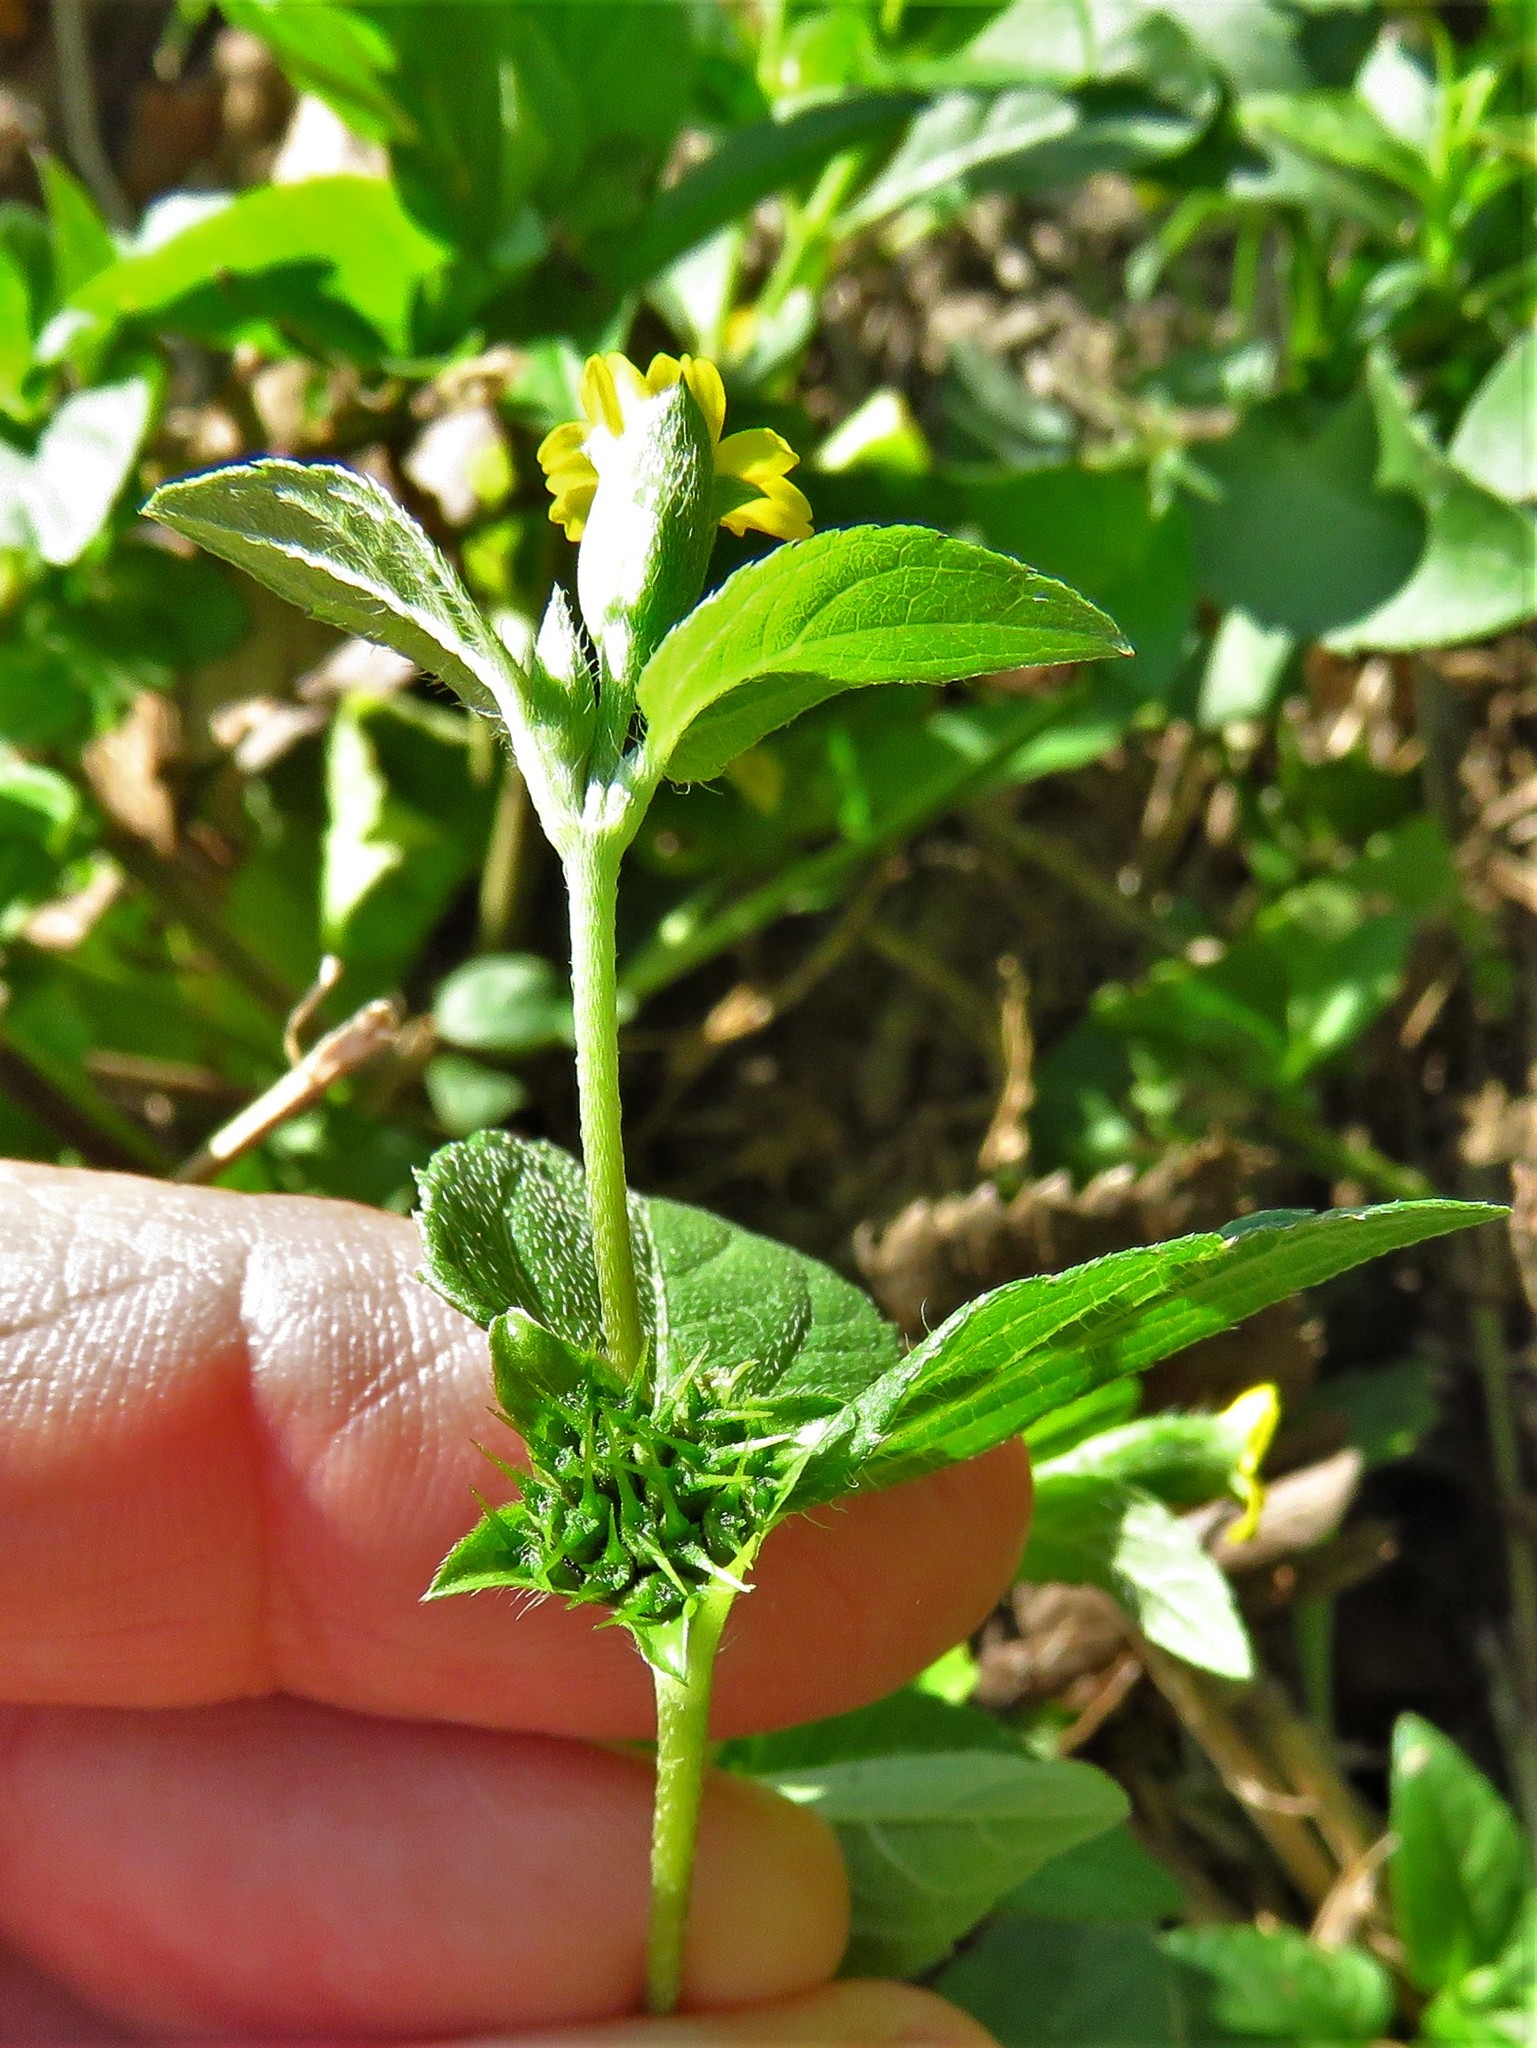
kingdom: Plantae
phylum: Tracheophyta
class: Magnoliopsida
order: Asterales
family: Asteraceae
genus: Calyptocarpus
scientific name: Calyptocarpus vialis
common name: Straggler daisy
